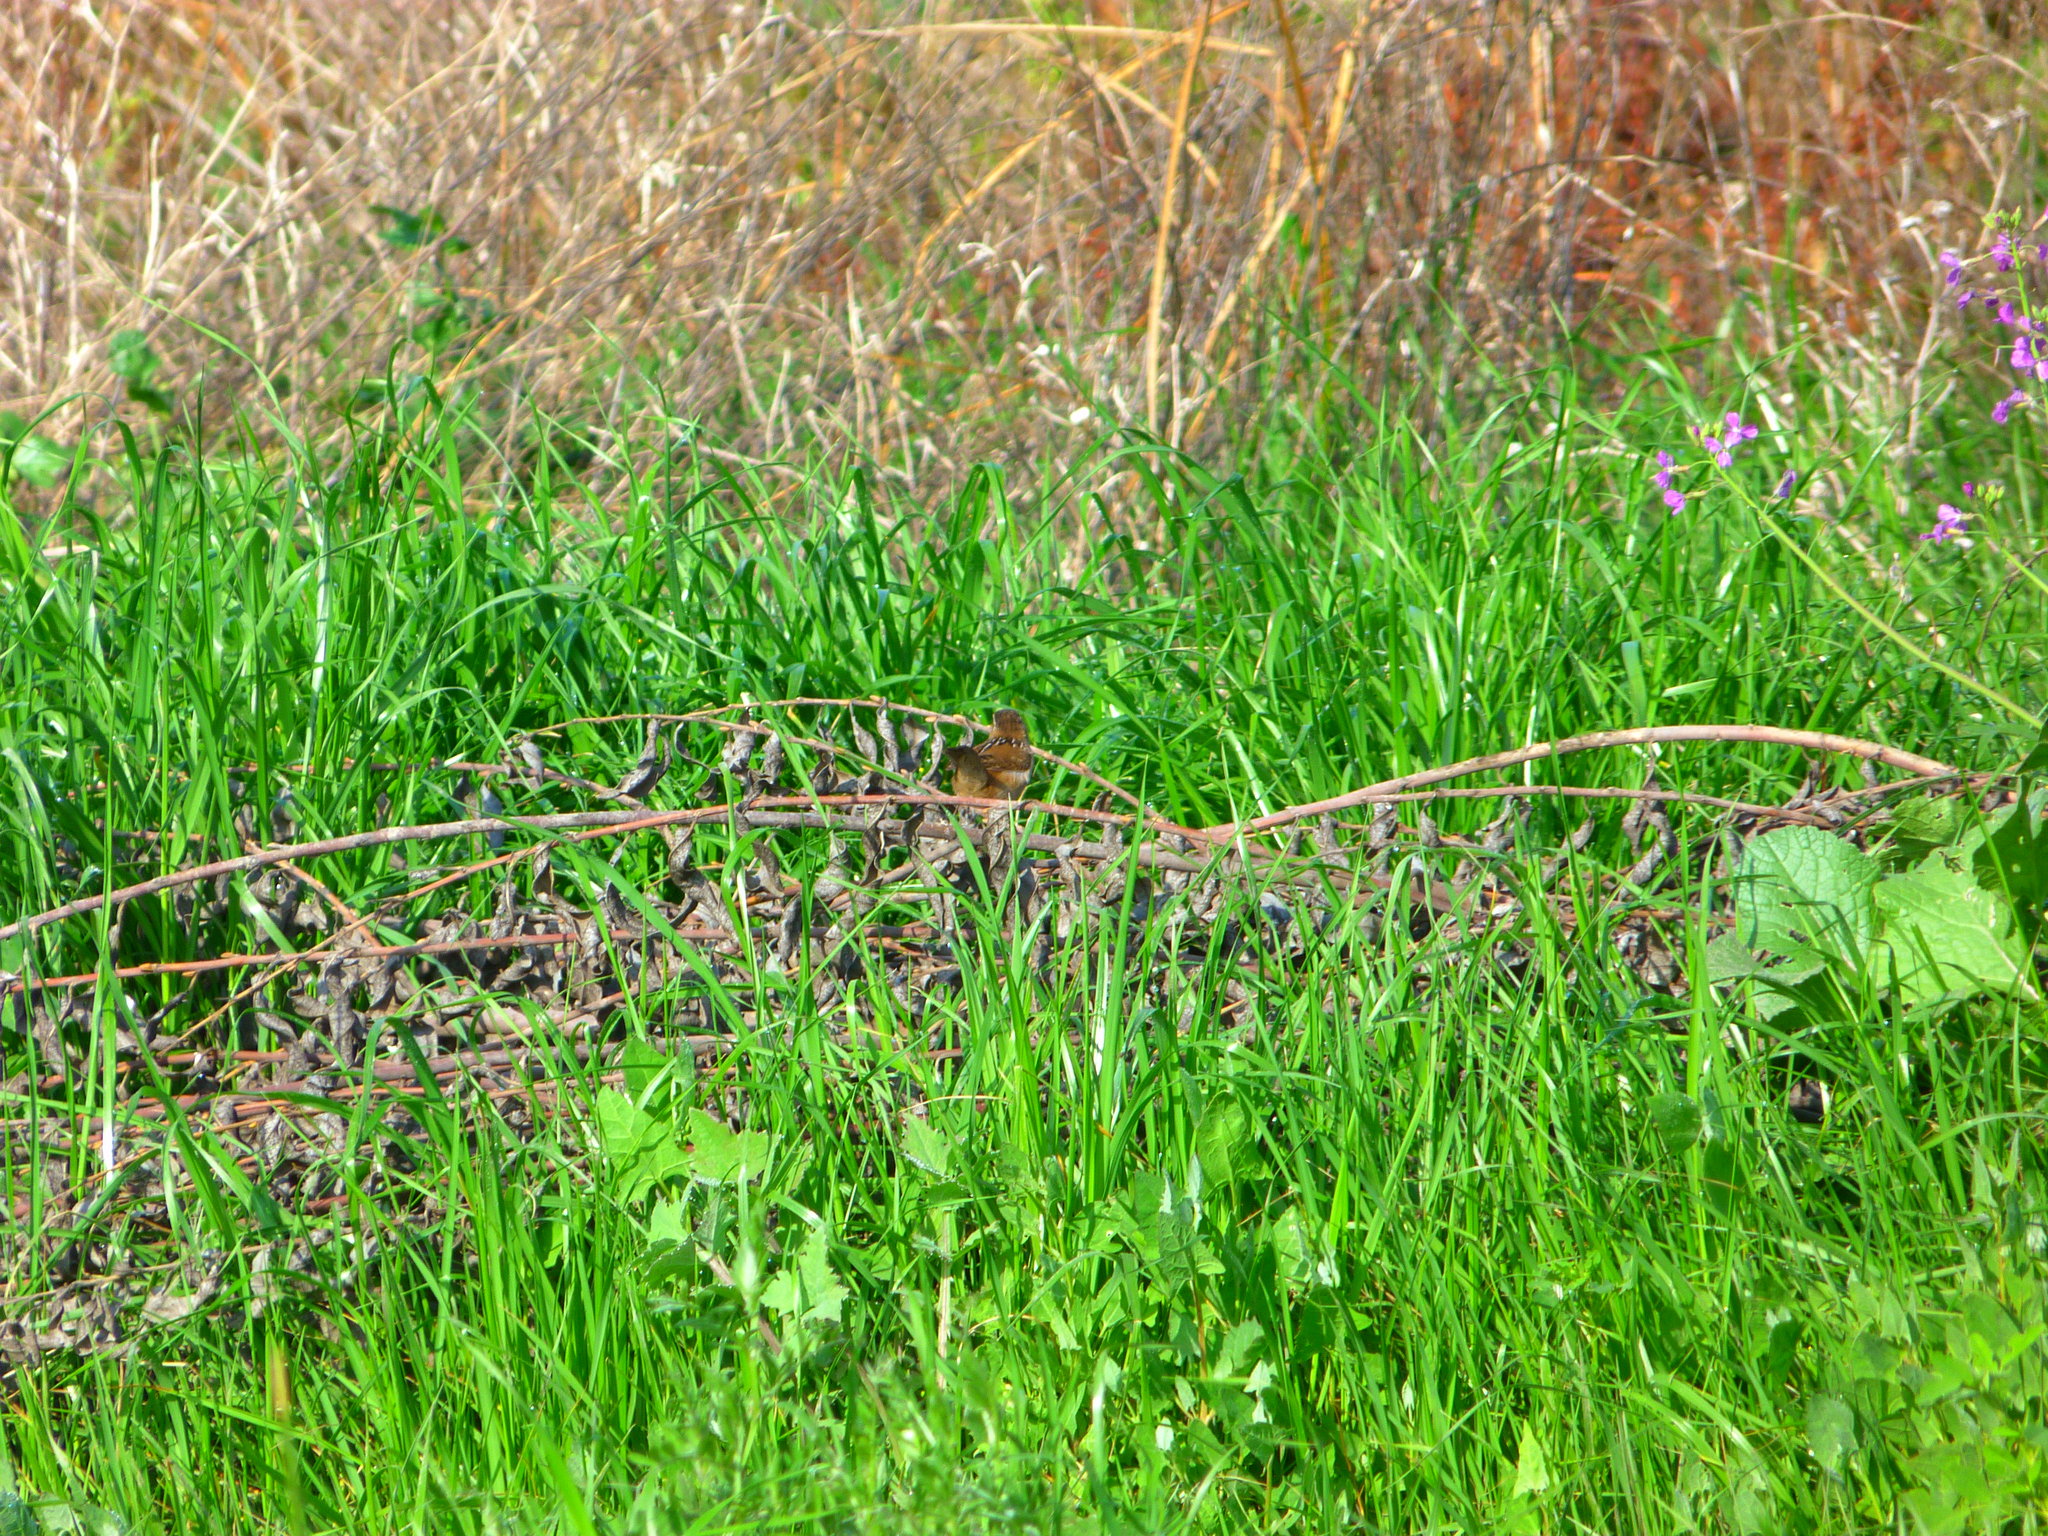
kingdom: Animalia
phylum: Chordata
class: Aves
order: Passeriformes
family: Troglodytidae
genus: Cistothorus
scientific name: Cistothorus palustris
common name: Marsh wren
